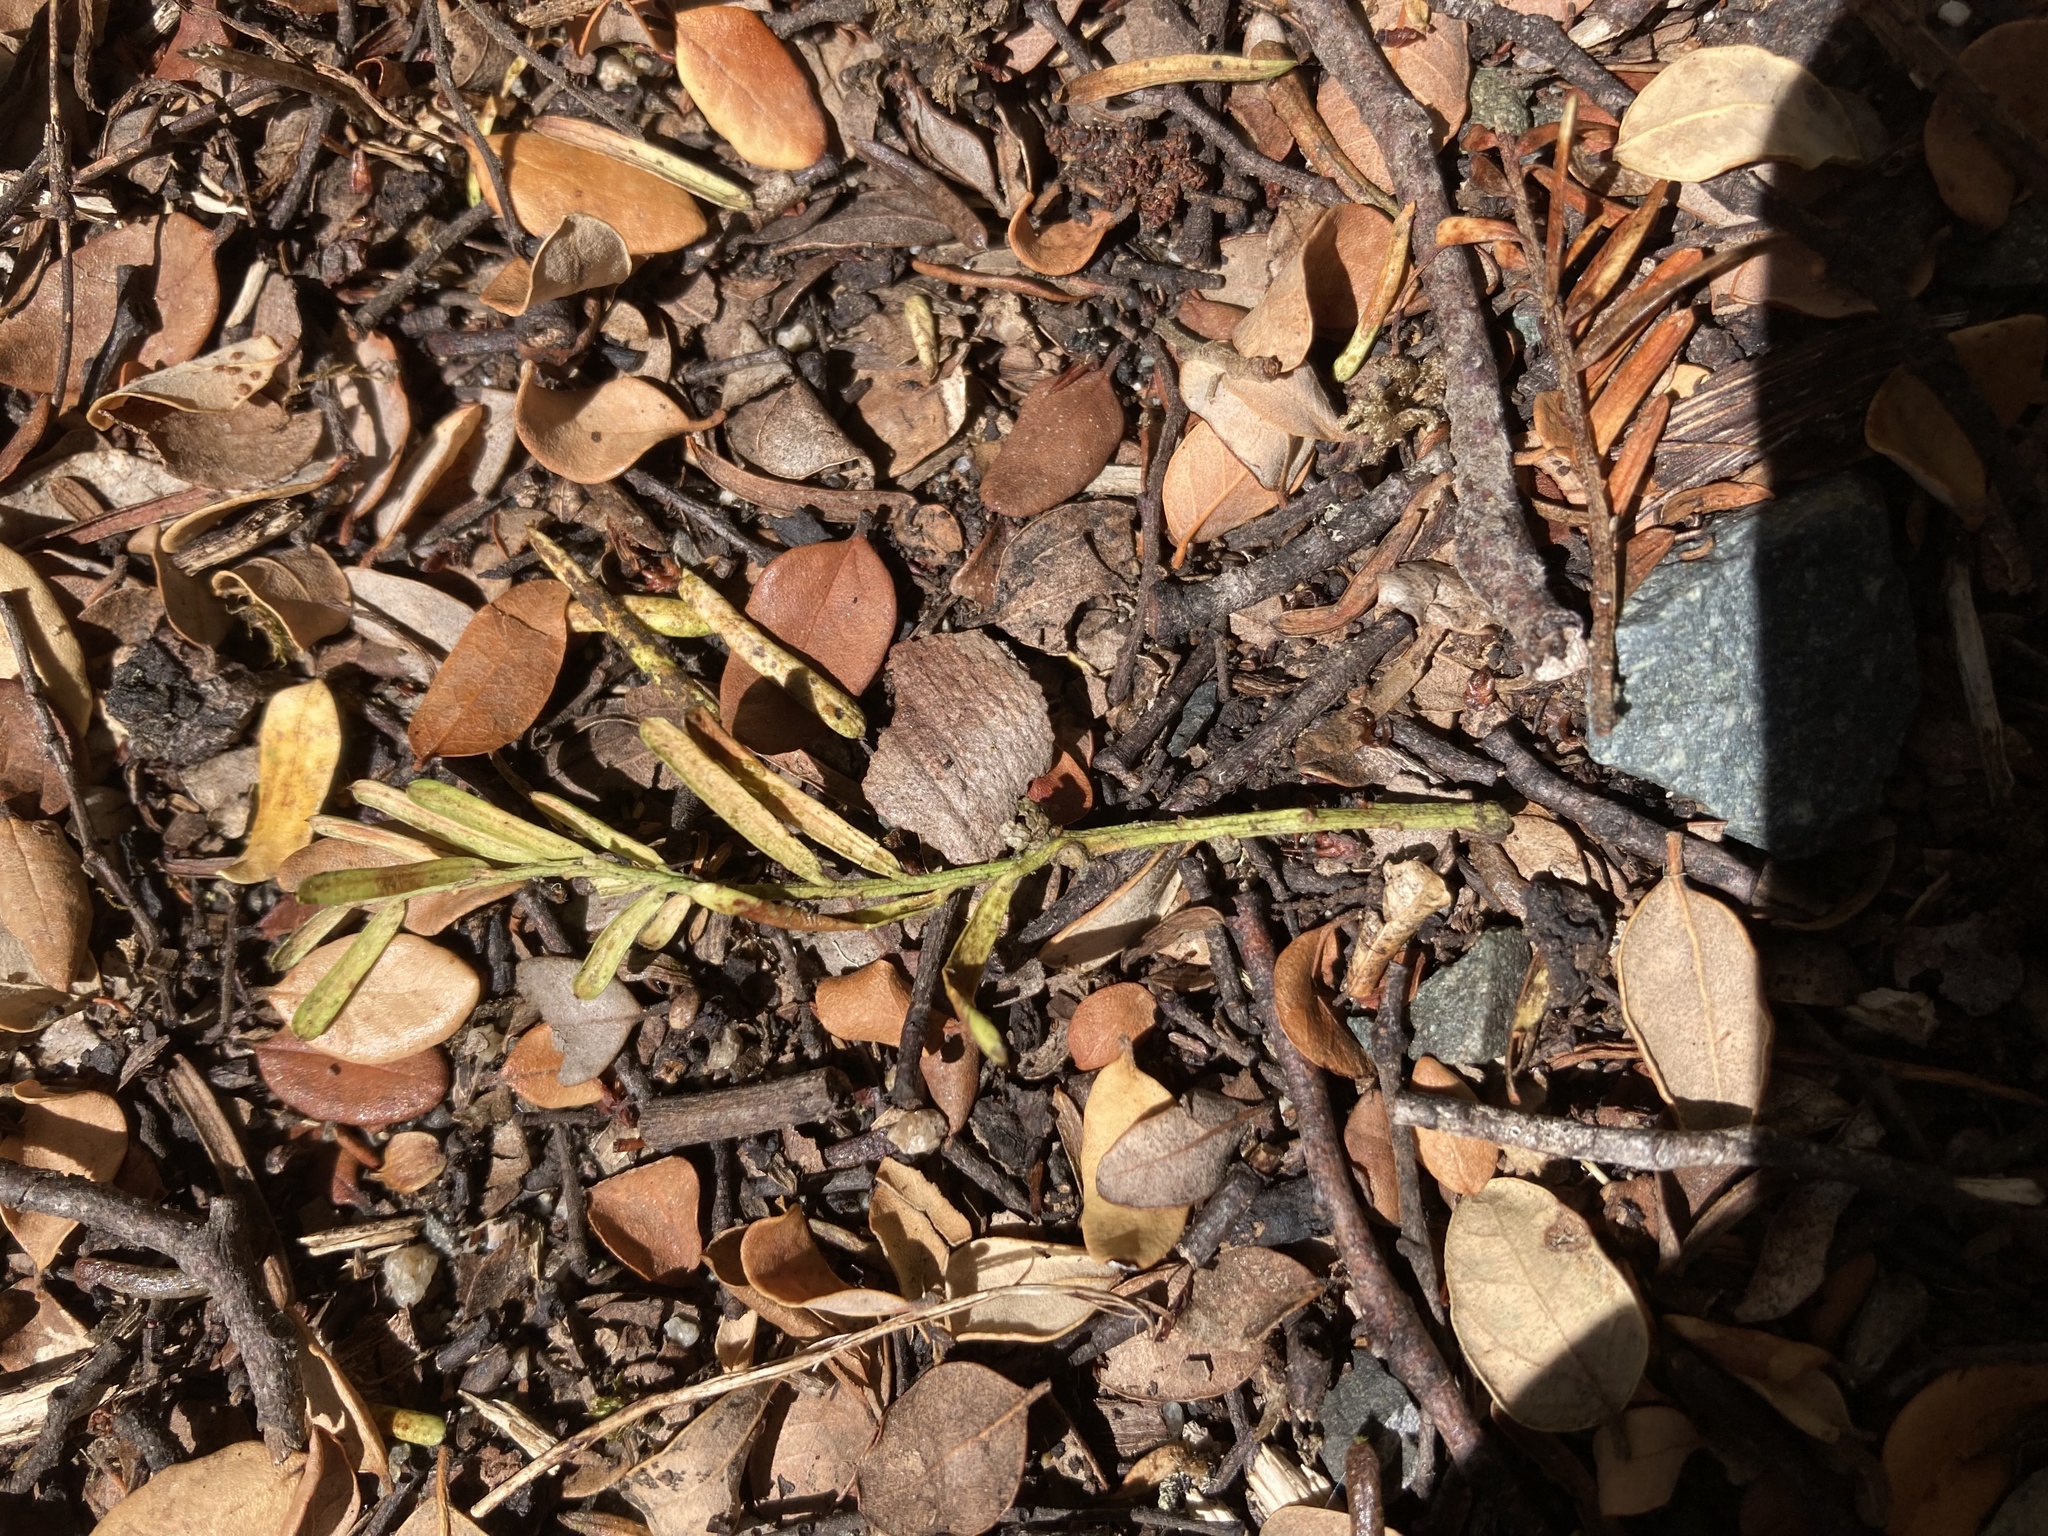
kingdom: Plantae
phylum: Tracheophyta
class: Pinopsida
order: Pinales
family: Podocarpaceae
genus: Prumnopitys
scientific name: Prumnopitys taxifolia
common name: Matai
